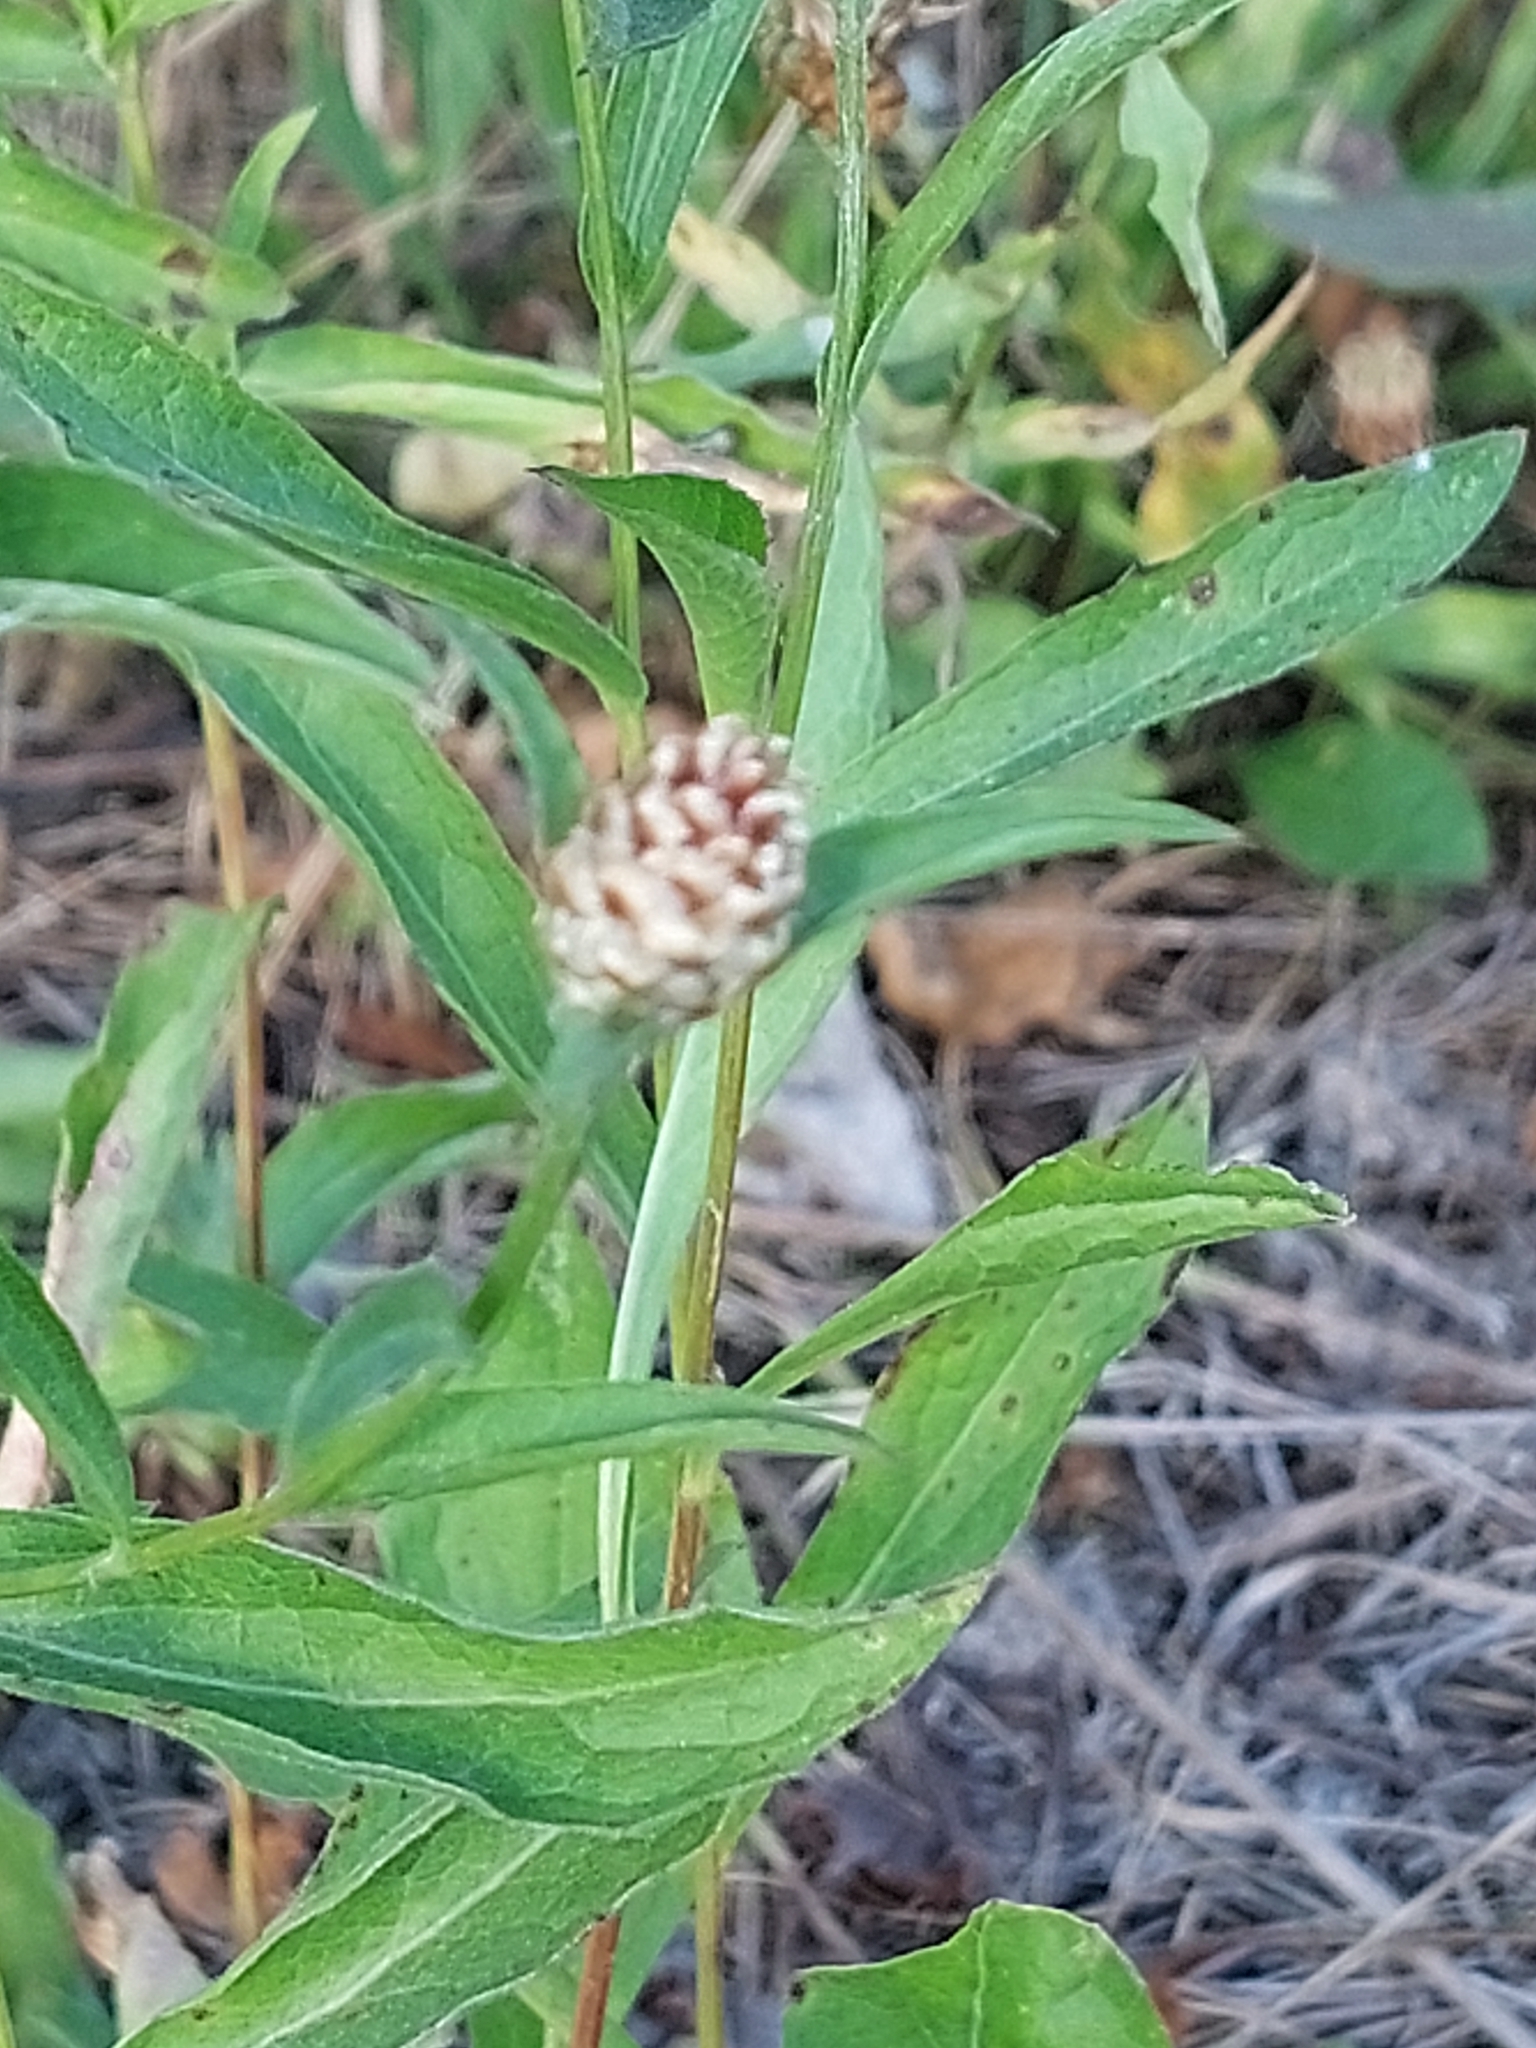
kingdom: Plantae
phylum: Tracheophyta
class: Magnoliopsida
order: Asterales
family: Asteraceae
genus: Centaurea
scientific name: Centaurea jacea
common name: Brown knapweed
